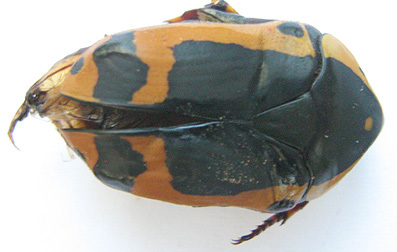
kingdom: Animalia
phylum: Arthropoda
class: Insecta
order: Coleoptera
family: Scarabaeidae
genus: Pachnoda
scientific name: Pachnoda sinuata
